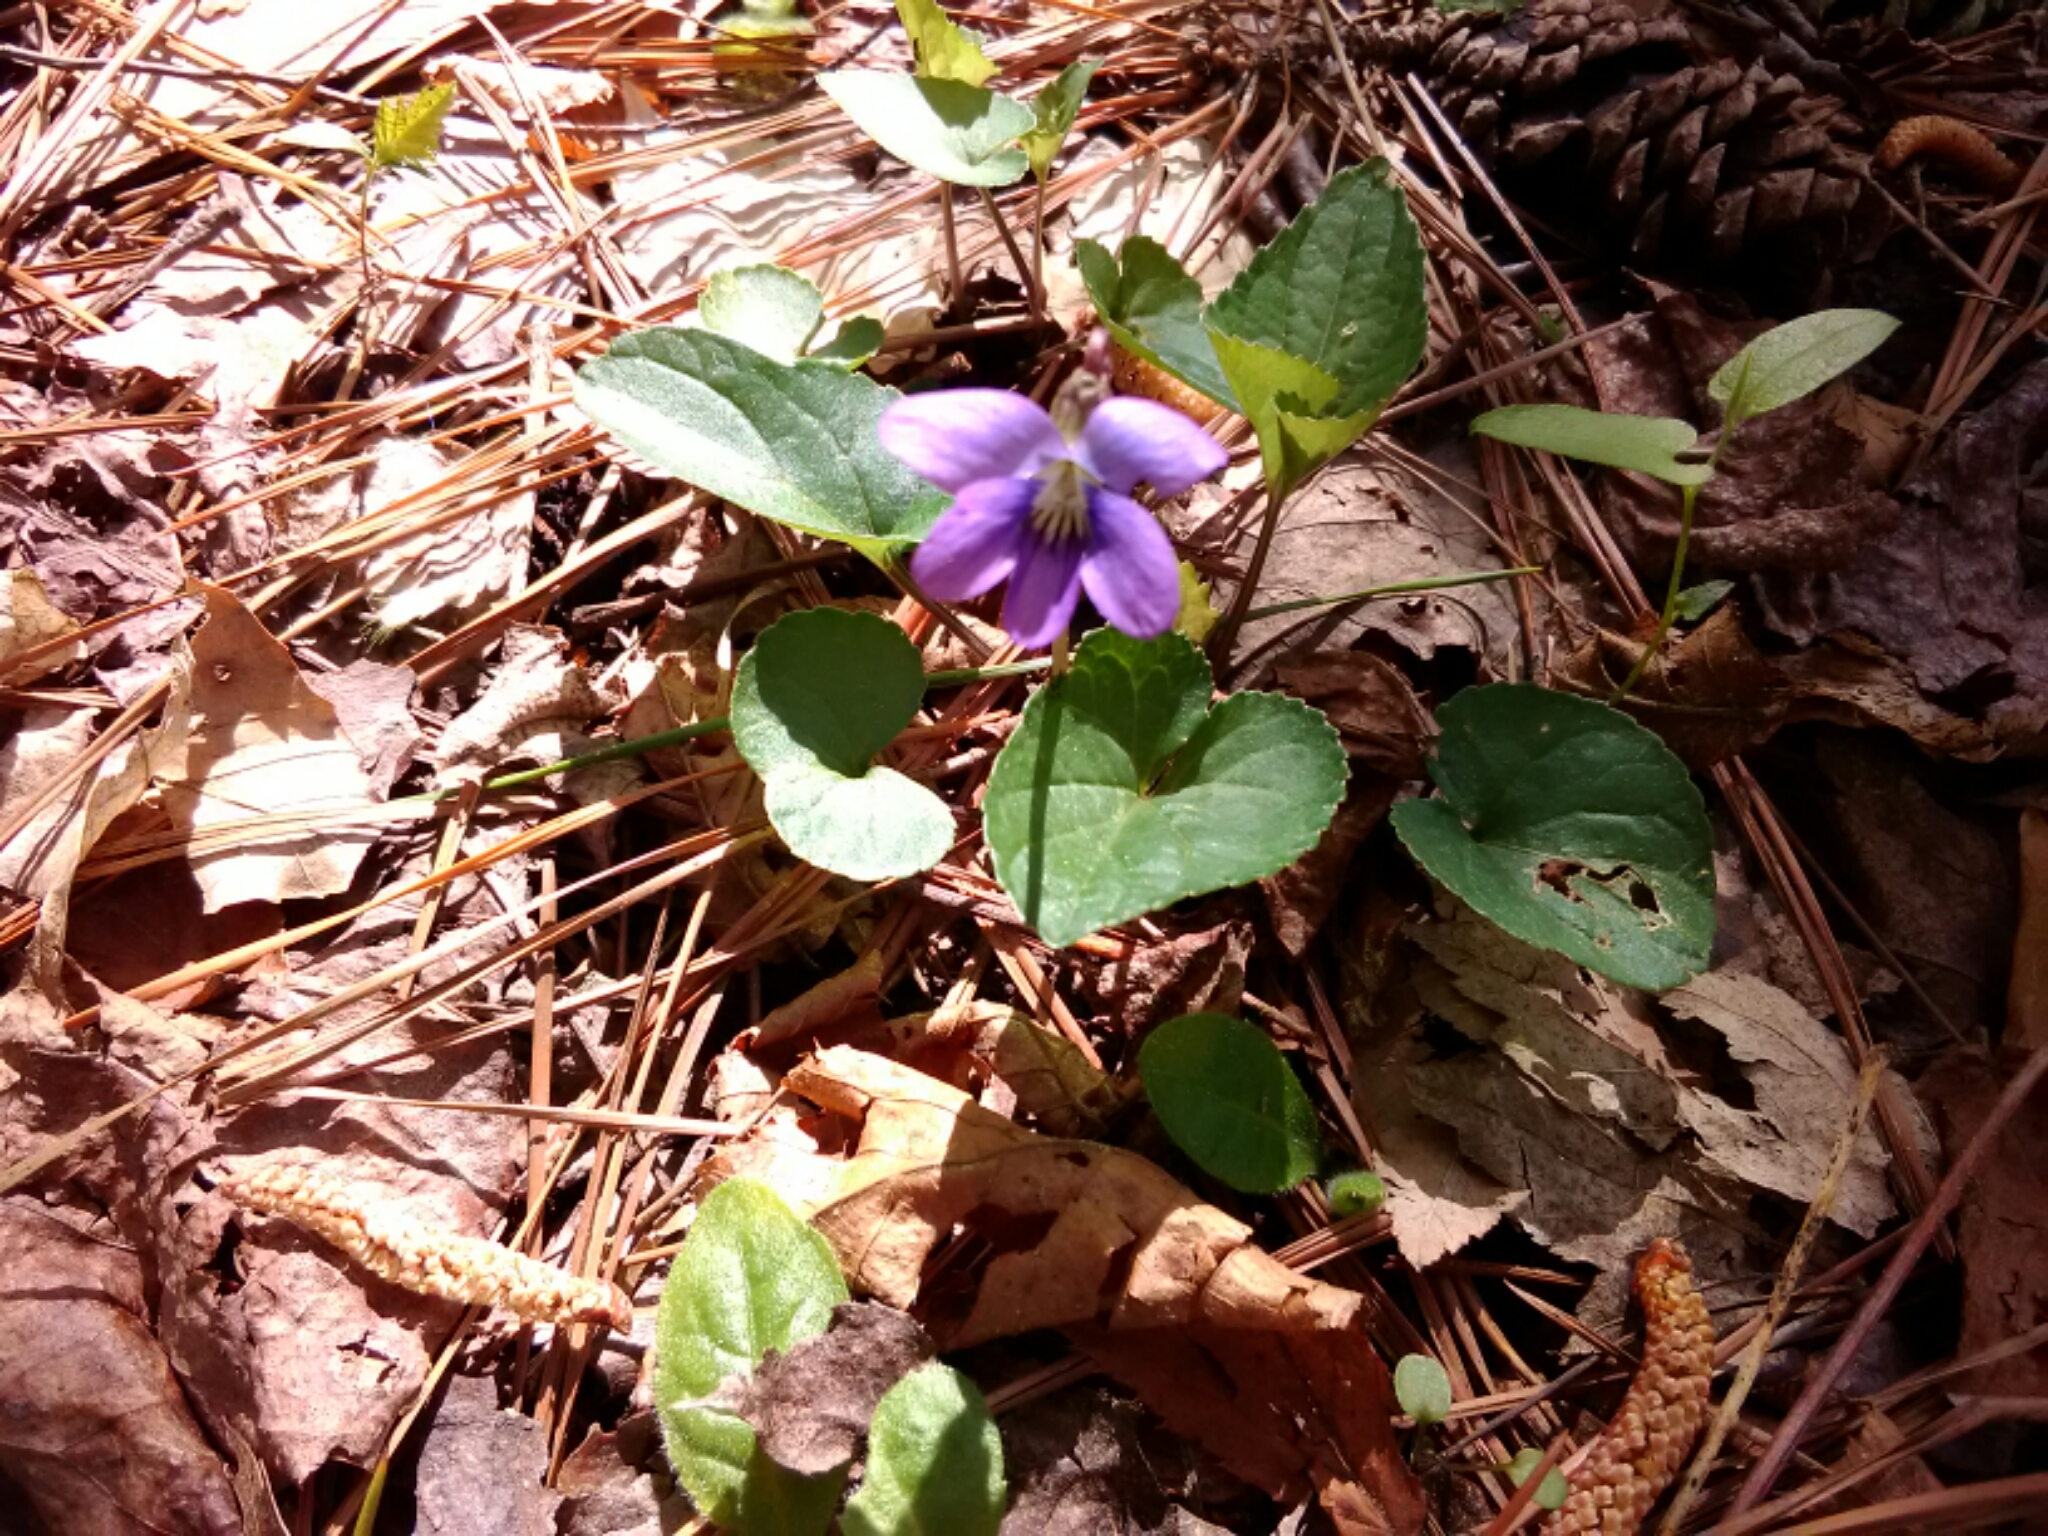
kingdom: Plantae
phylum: Tracheophyta
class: Magnoliopsida
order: Malpighiales
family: Violaceae
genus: Viola
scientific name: Viola sororia
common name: Dooryard violet
